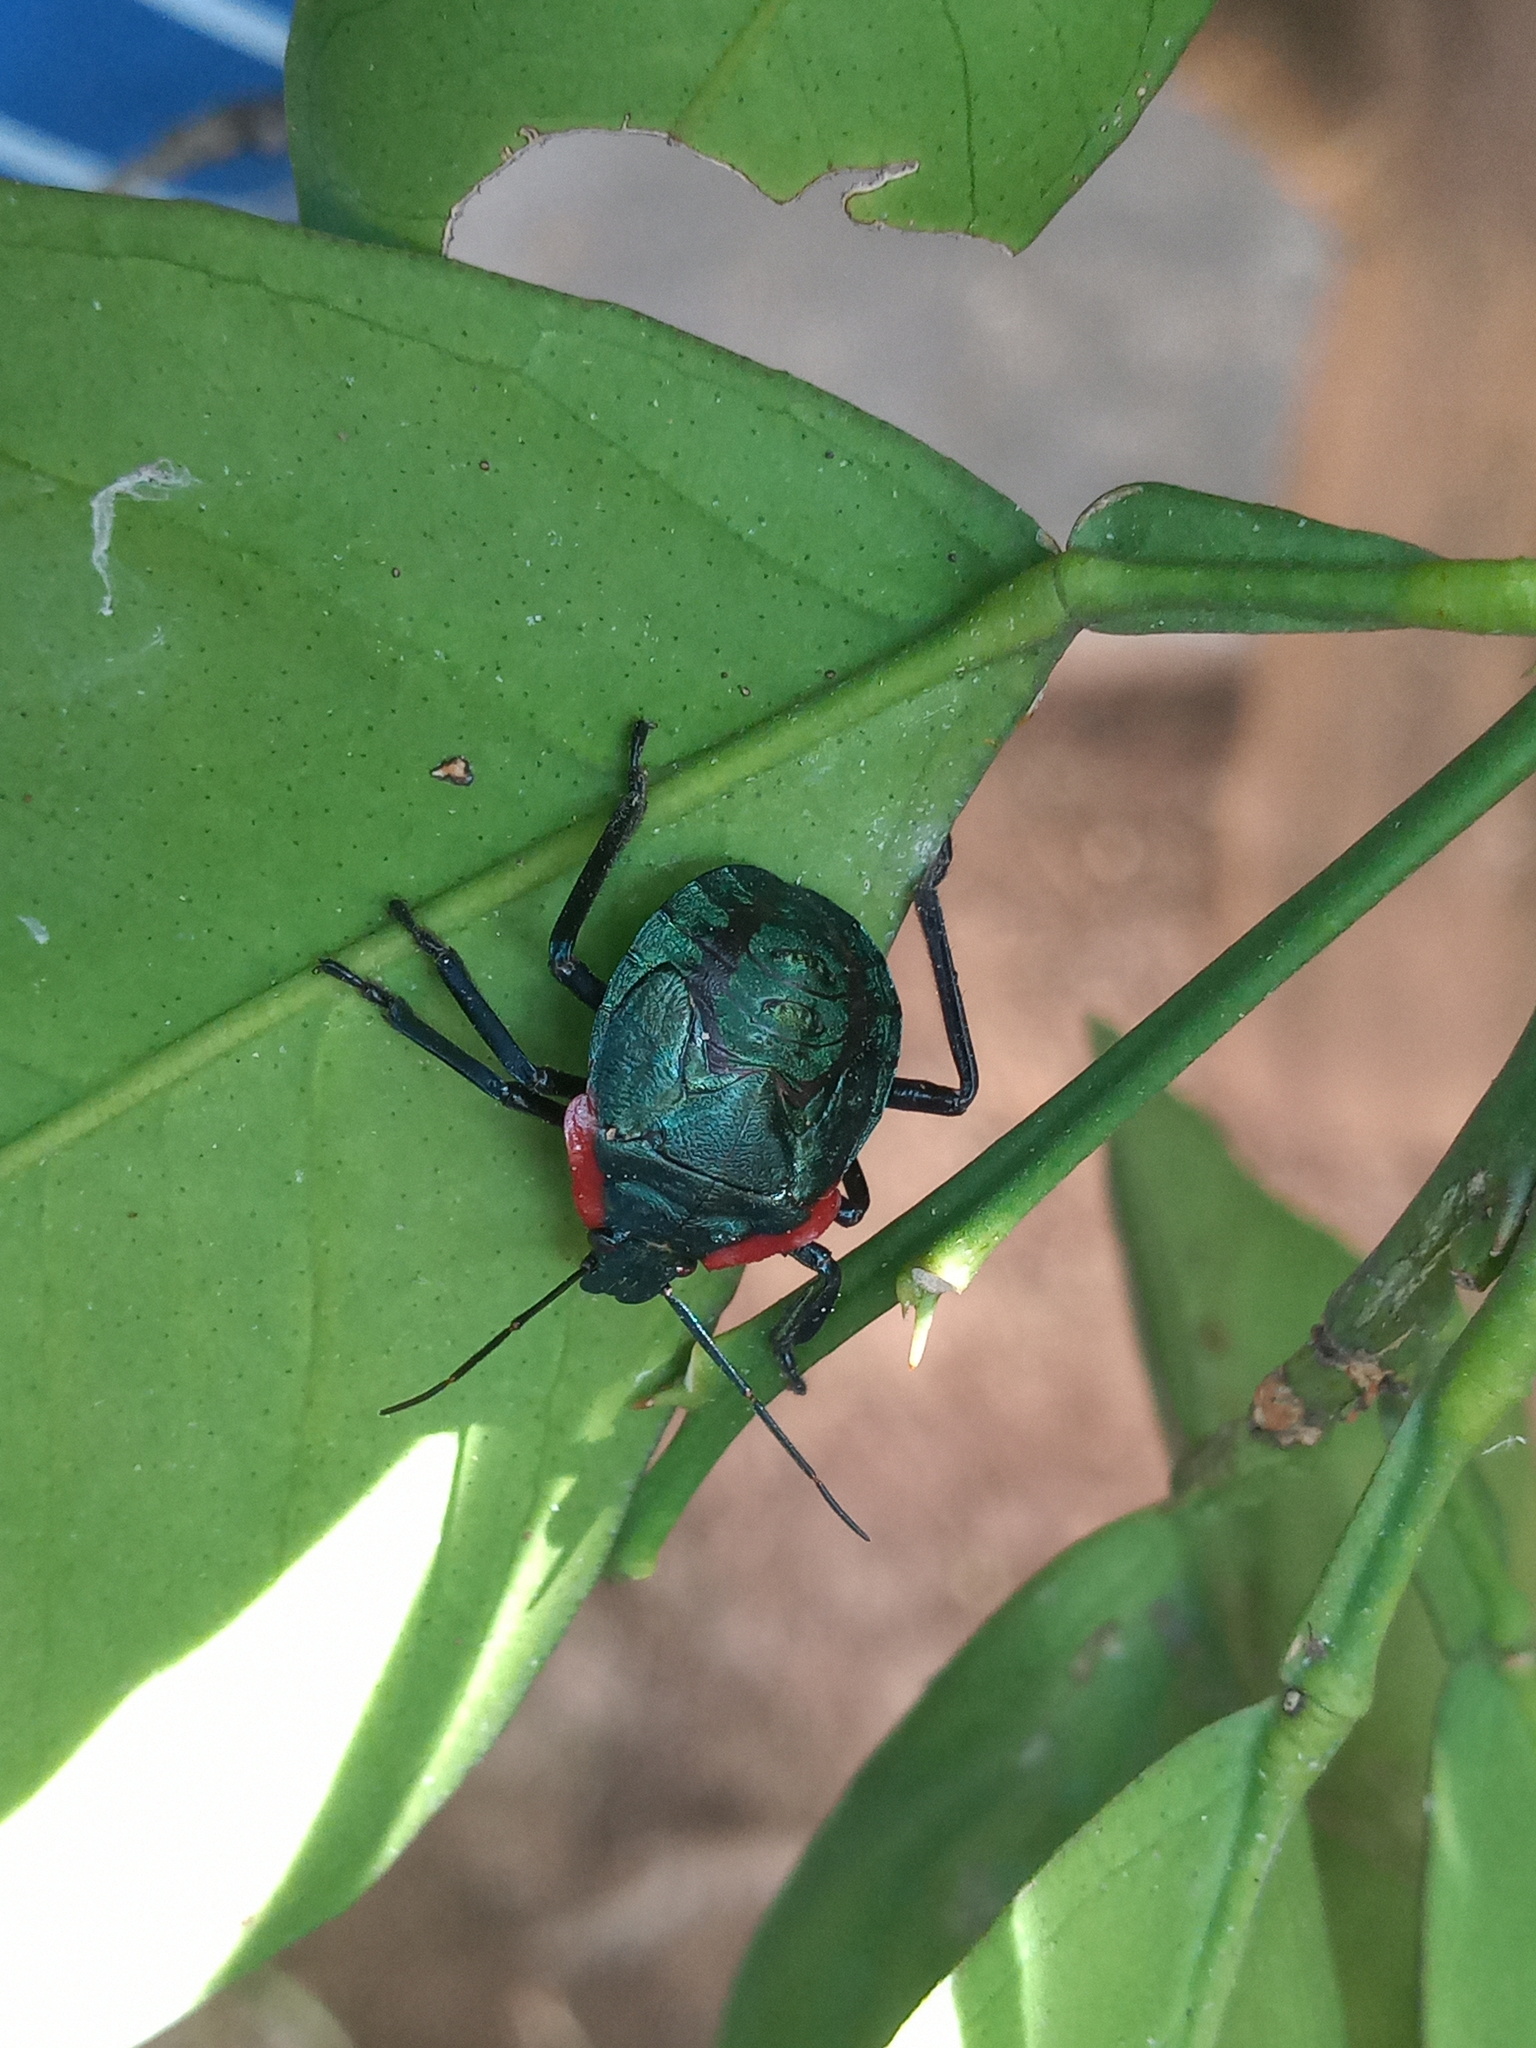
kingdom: Animalia
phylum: Arthropoda
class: Insecta
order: Hemiptera
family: Pentatomidae
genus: Alcaeorrhynchus
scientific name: Alcaeorrhynchus grandis
